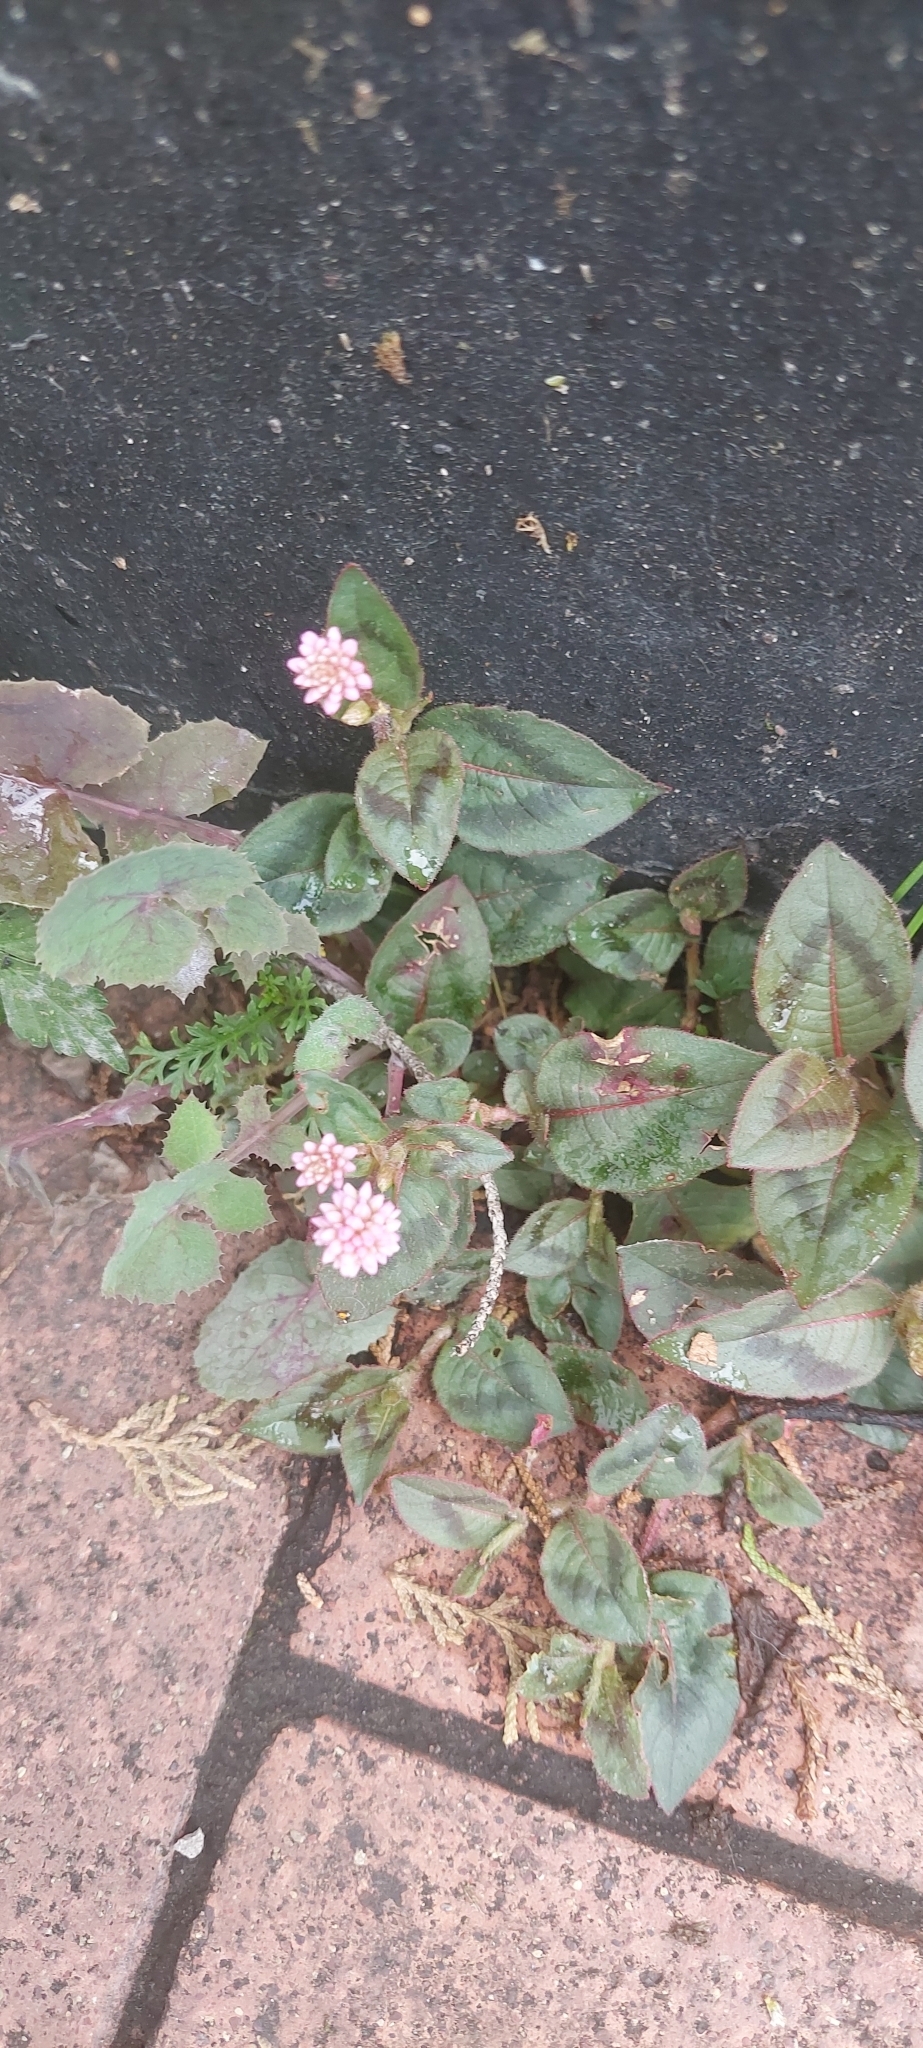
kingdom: Plantae
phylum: Tracheophyta
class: Magnoliopsida
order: Caryophyllales
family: Polygonaceae
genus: Persicaria
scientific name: Persicaria capitata
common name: Pinkhead smartweed
